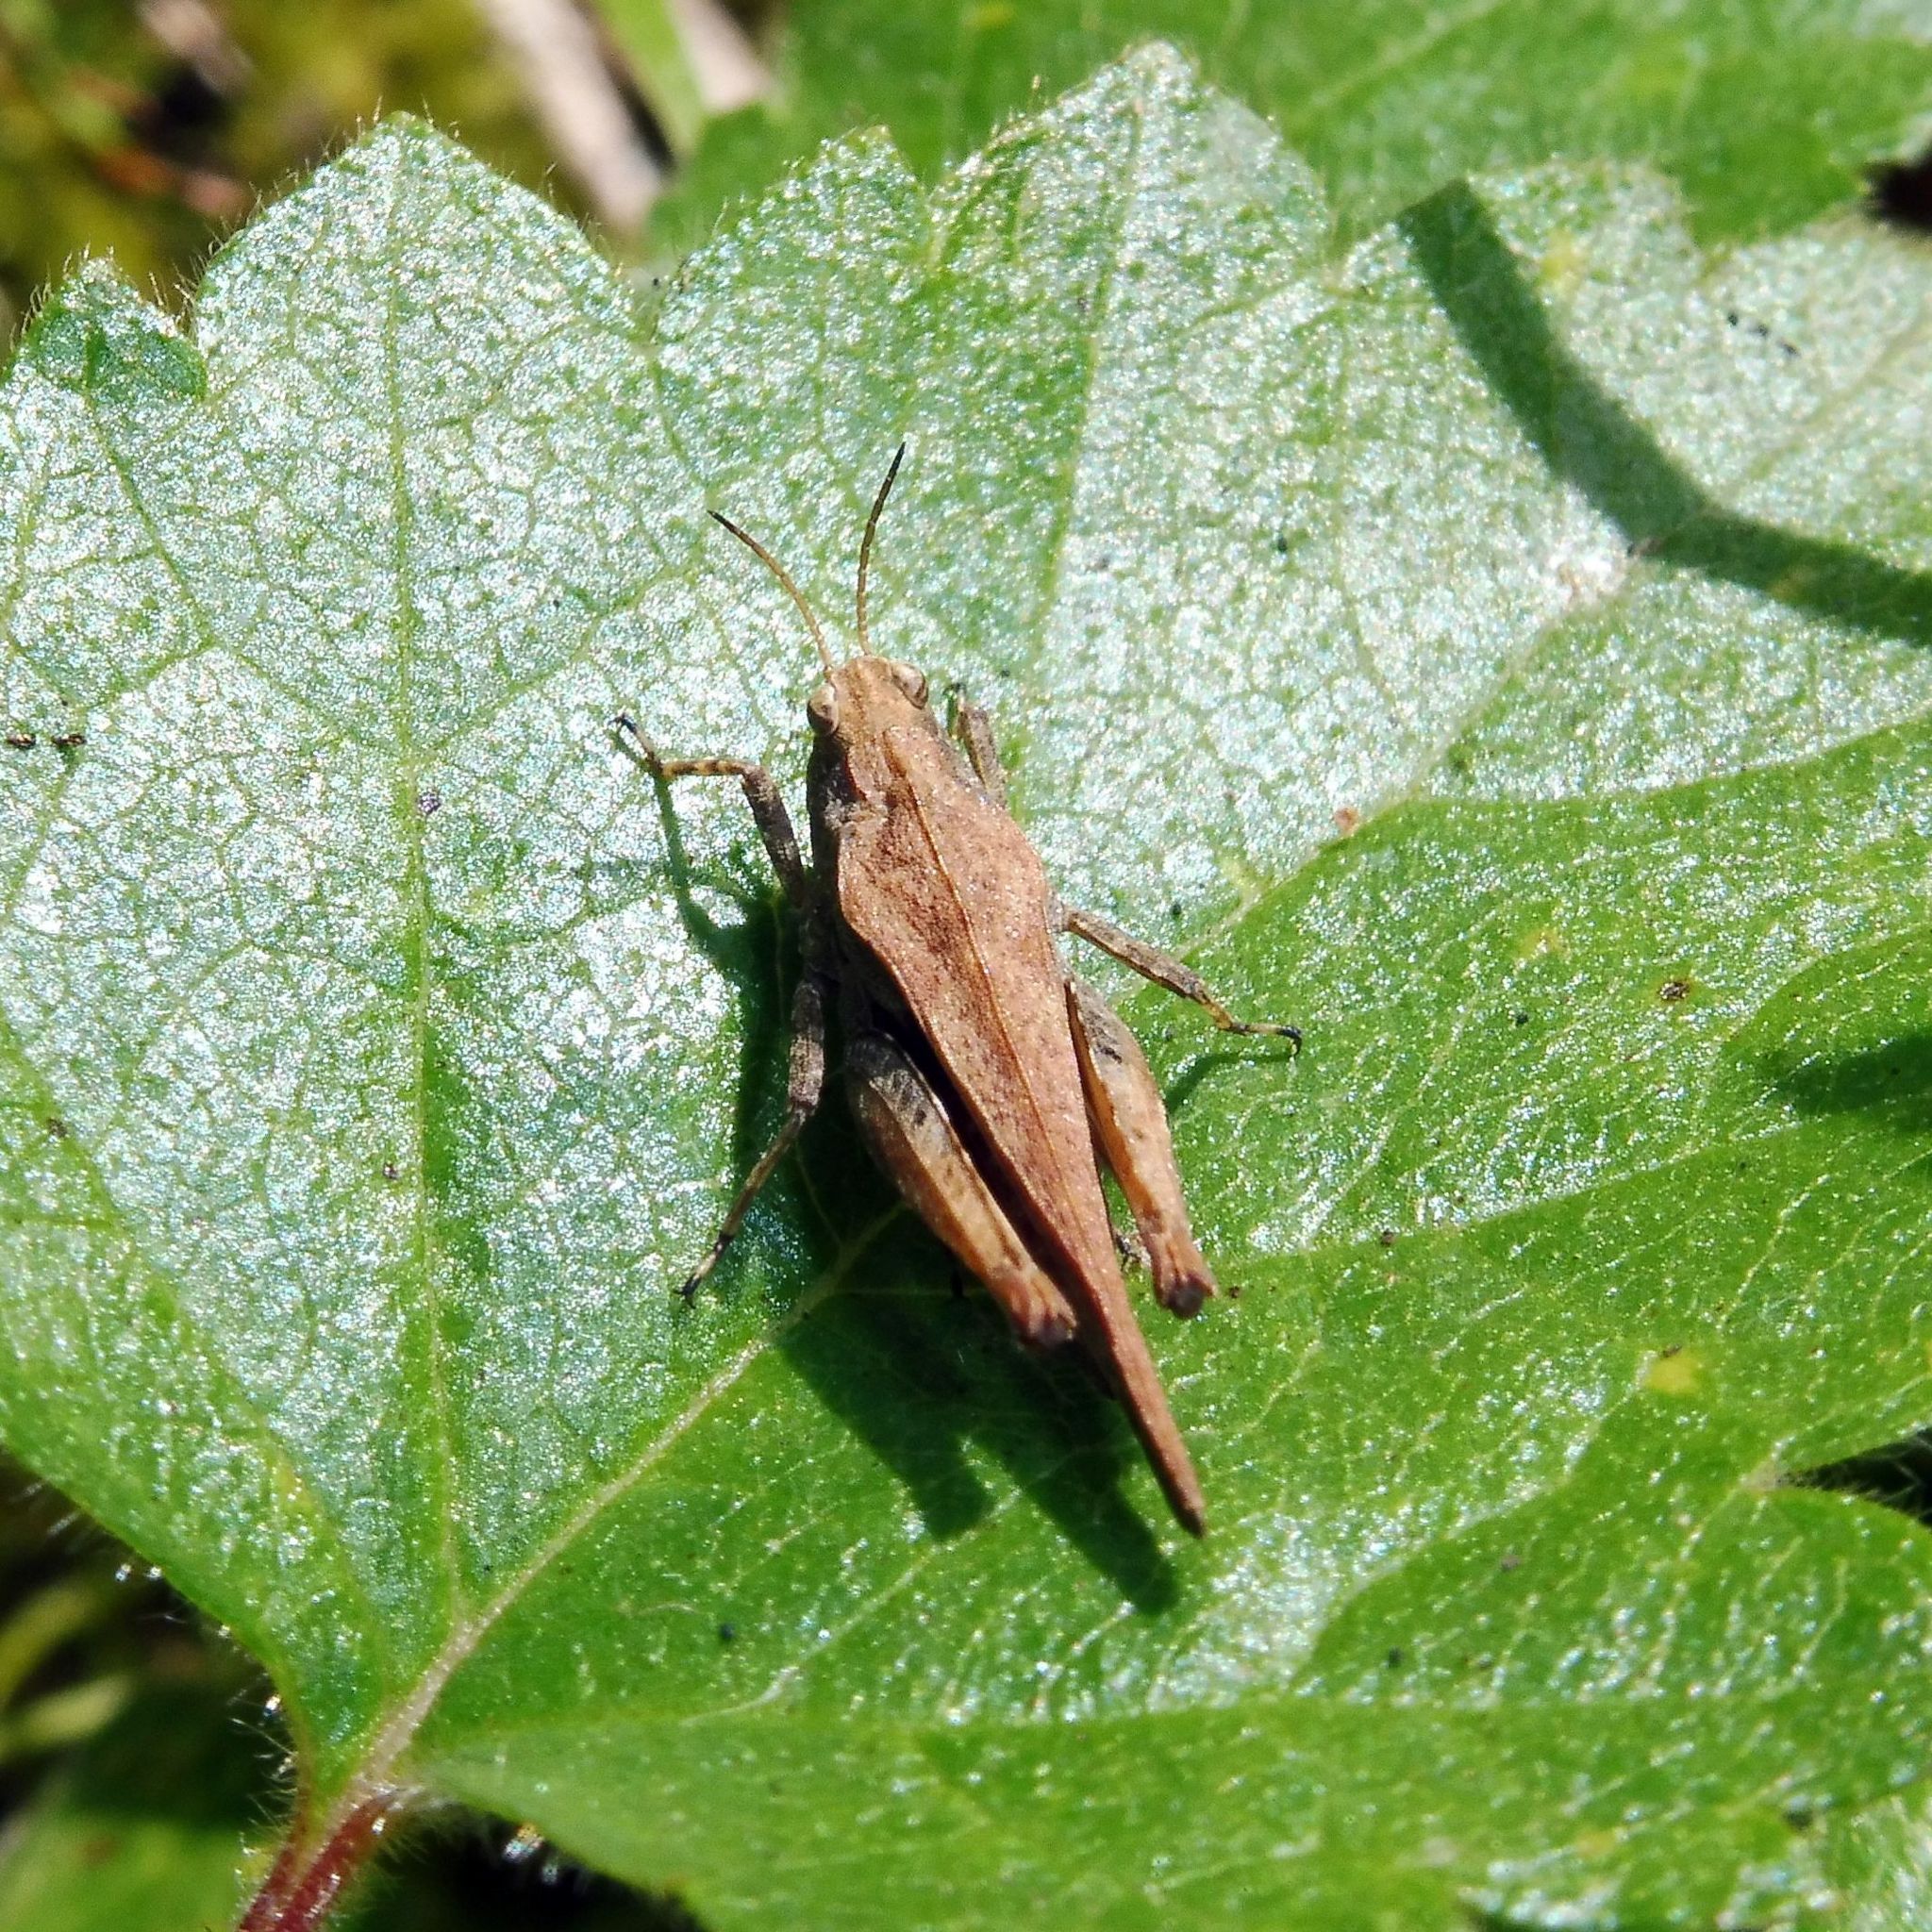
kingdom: Animalia
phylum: Arthropoda
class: Insecta
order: Orthoptera
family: Tetrigidae
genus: Tetrix
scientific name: Tetrix subulata
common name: Slender ground-hopper
